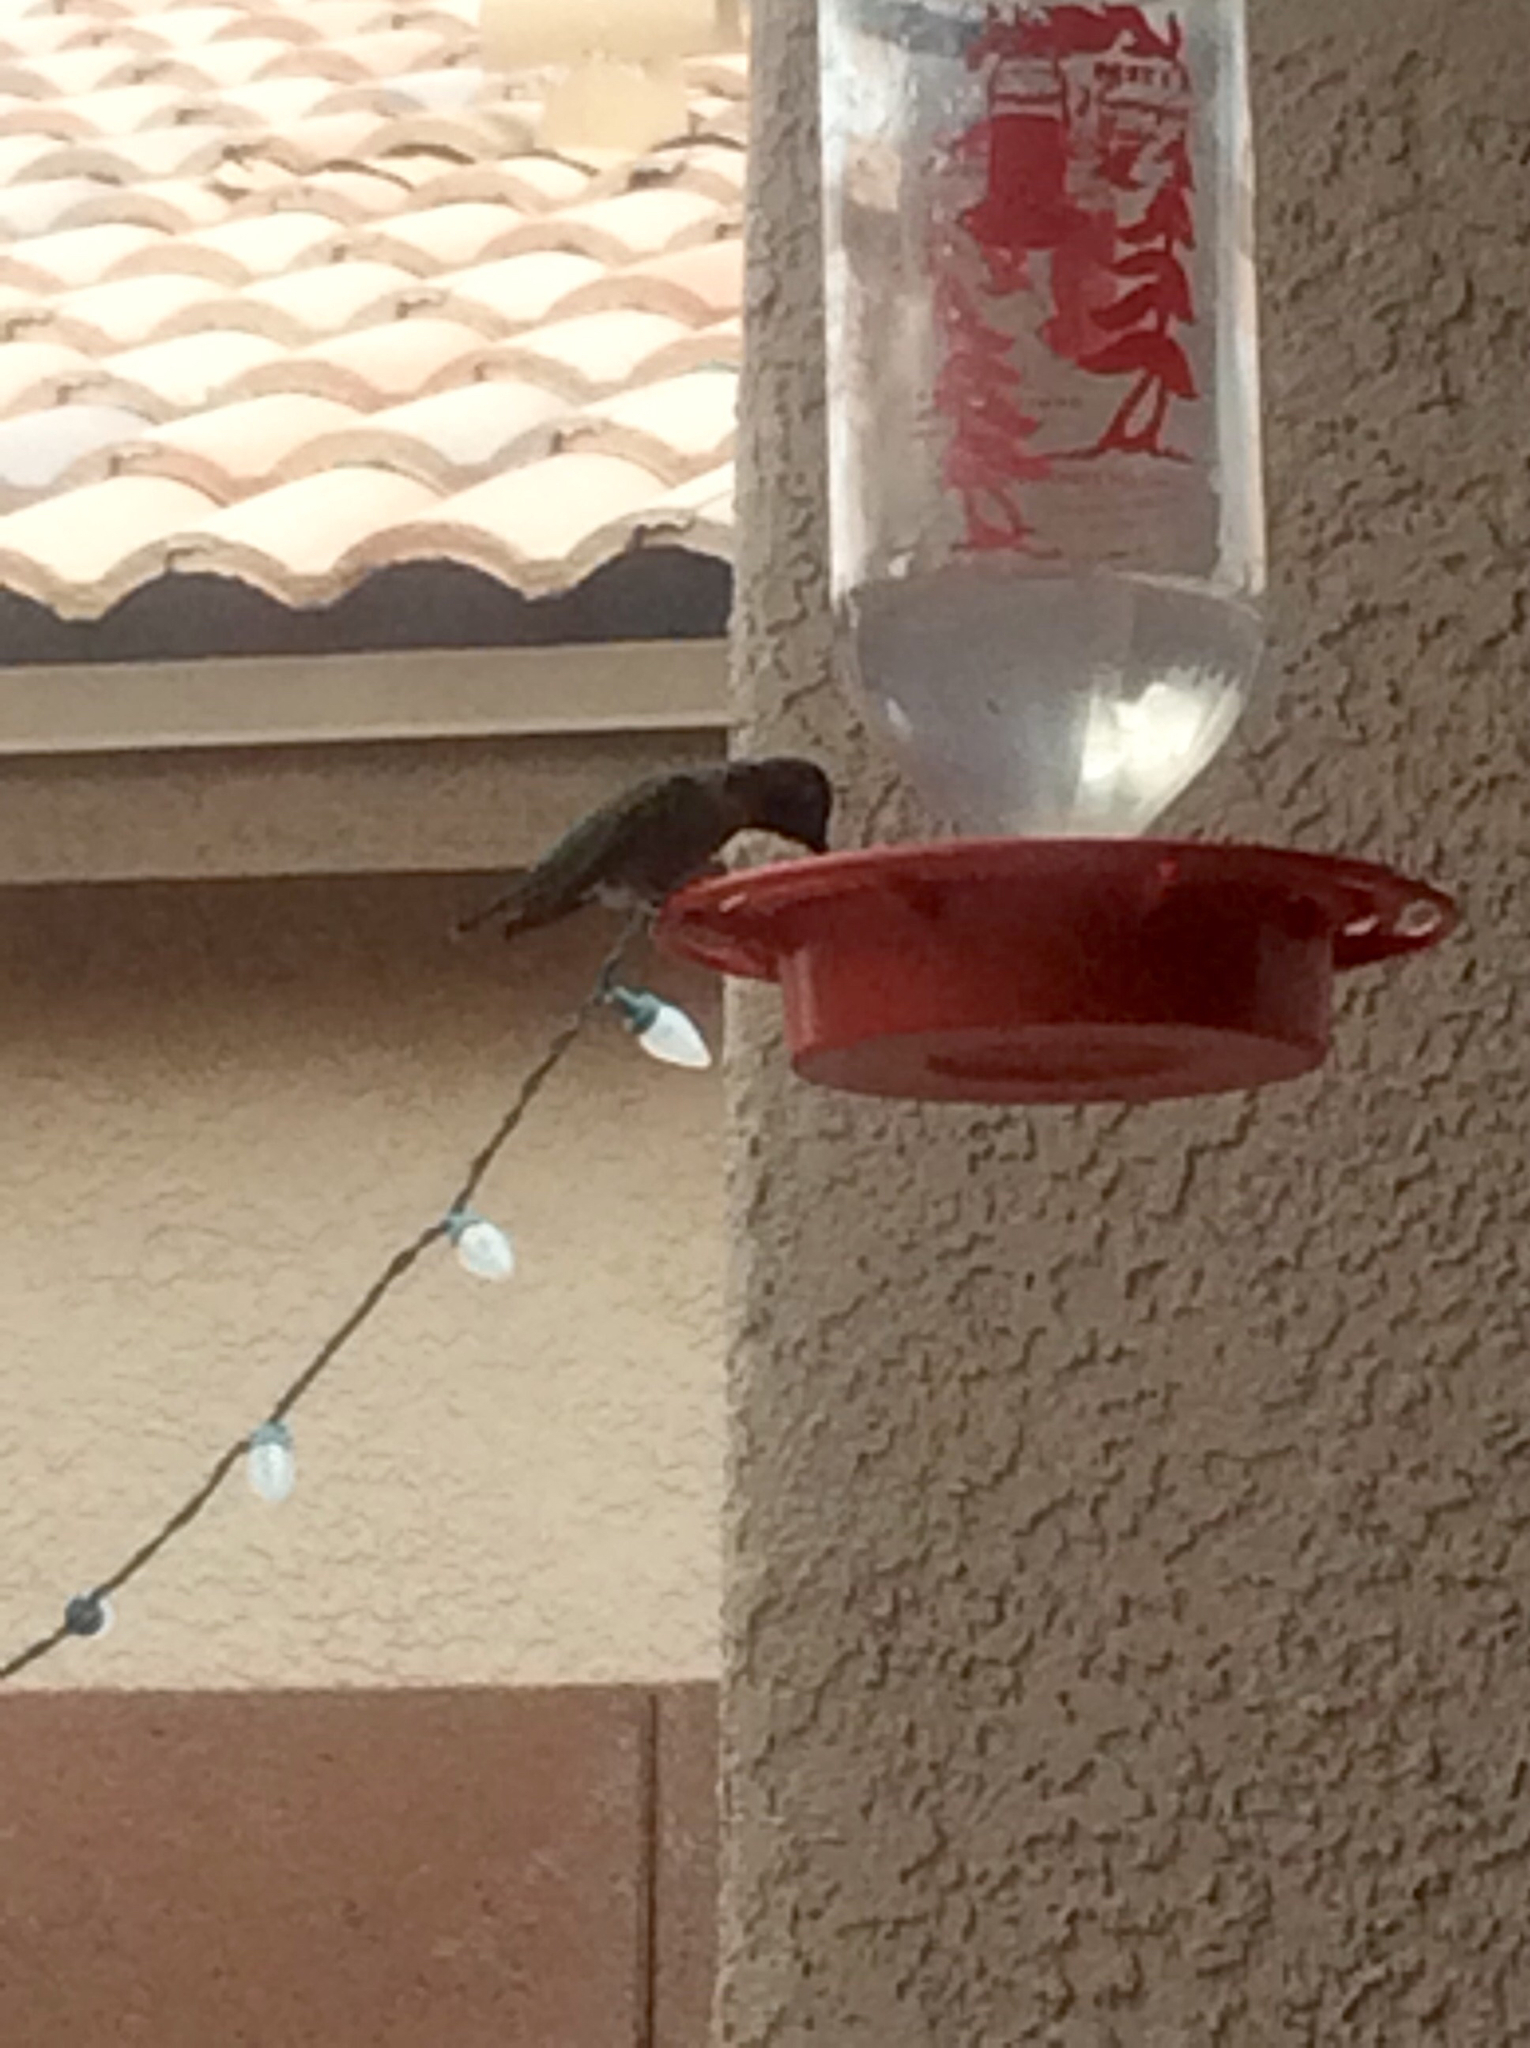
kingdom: Animalia
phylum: Chordata
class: Aves
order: Apodiformes
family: Trochilidae
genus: Calypte
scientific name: Calypte anna
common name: Anna's hummingbird
